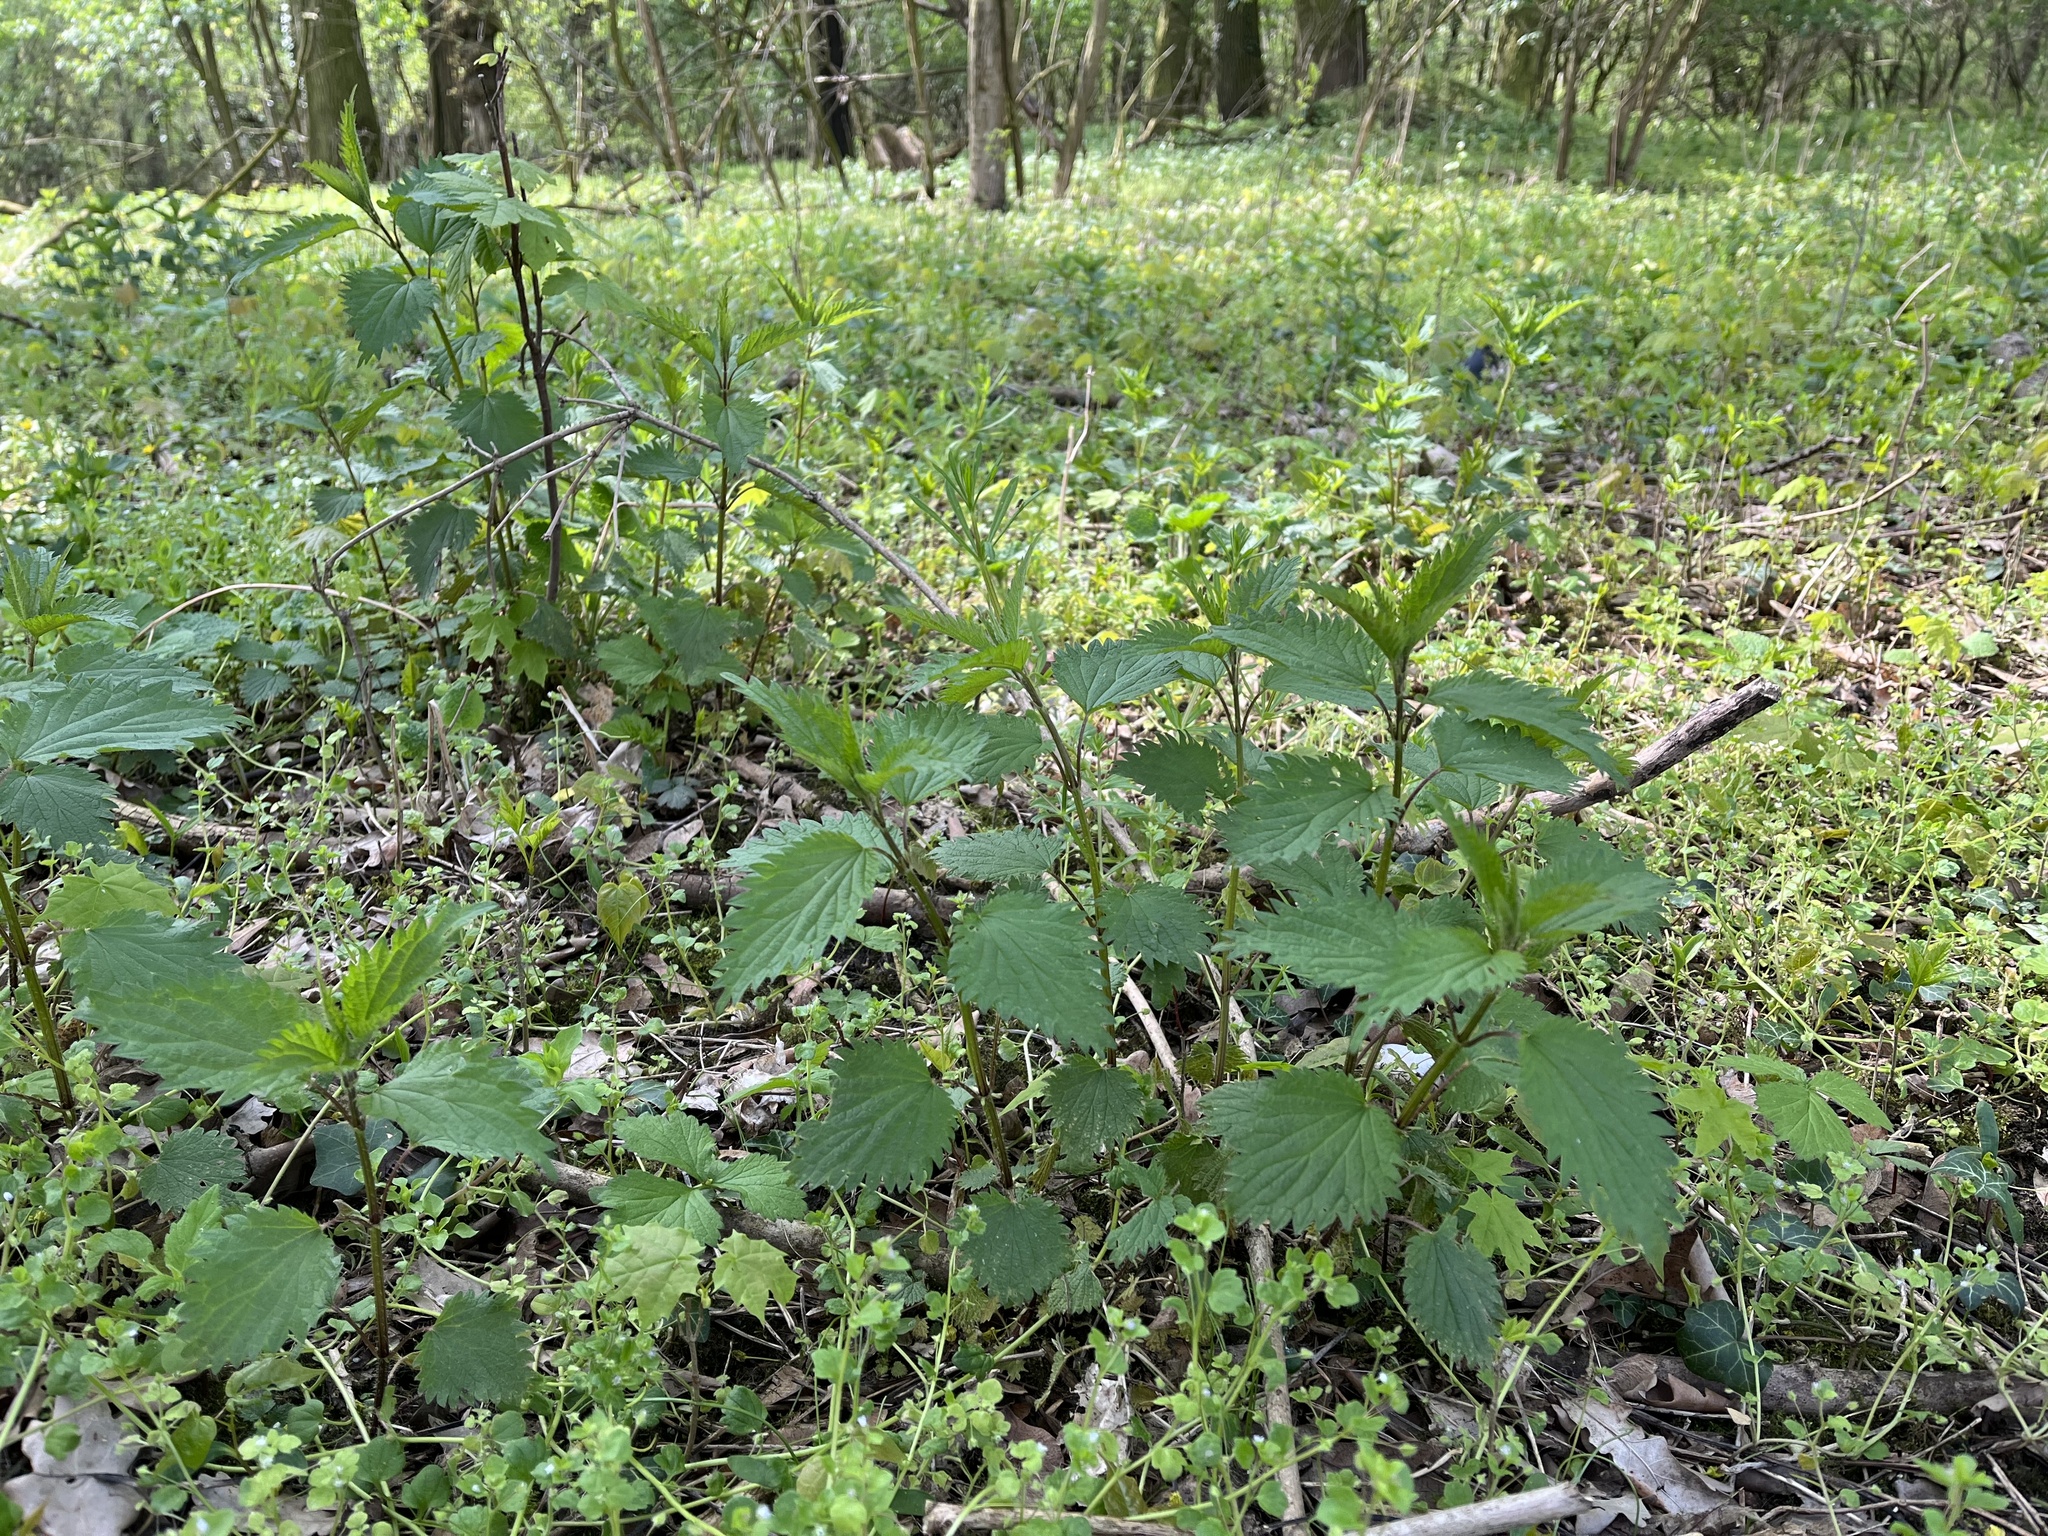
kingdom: Plantae
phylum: Tracheophyta
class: Magnoliopsida
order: Rosales
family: Urticaceae
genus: Urtica
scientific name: Urtica dioica
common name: Common nettle
